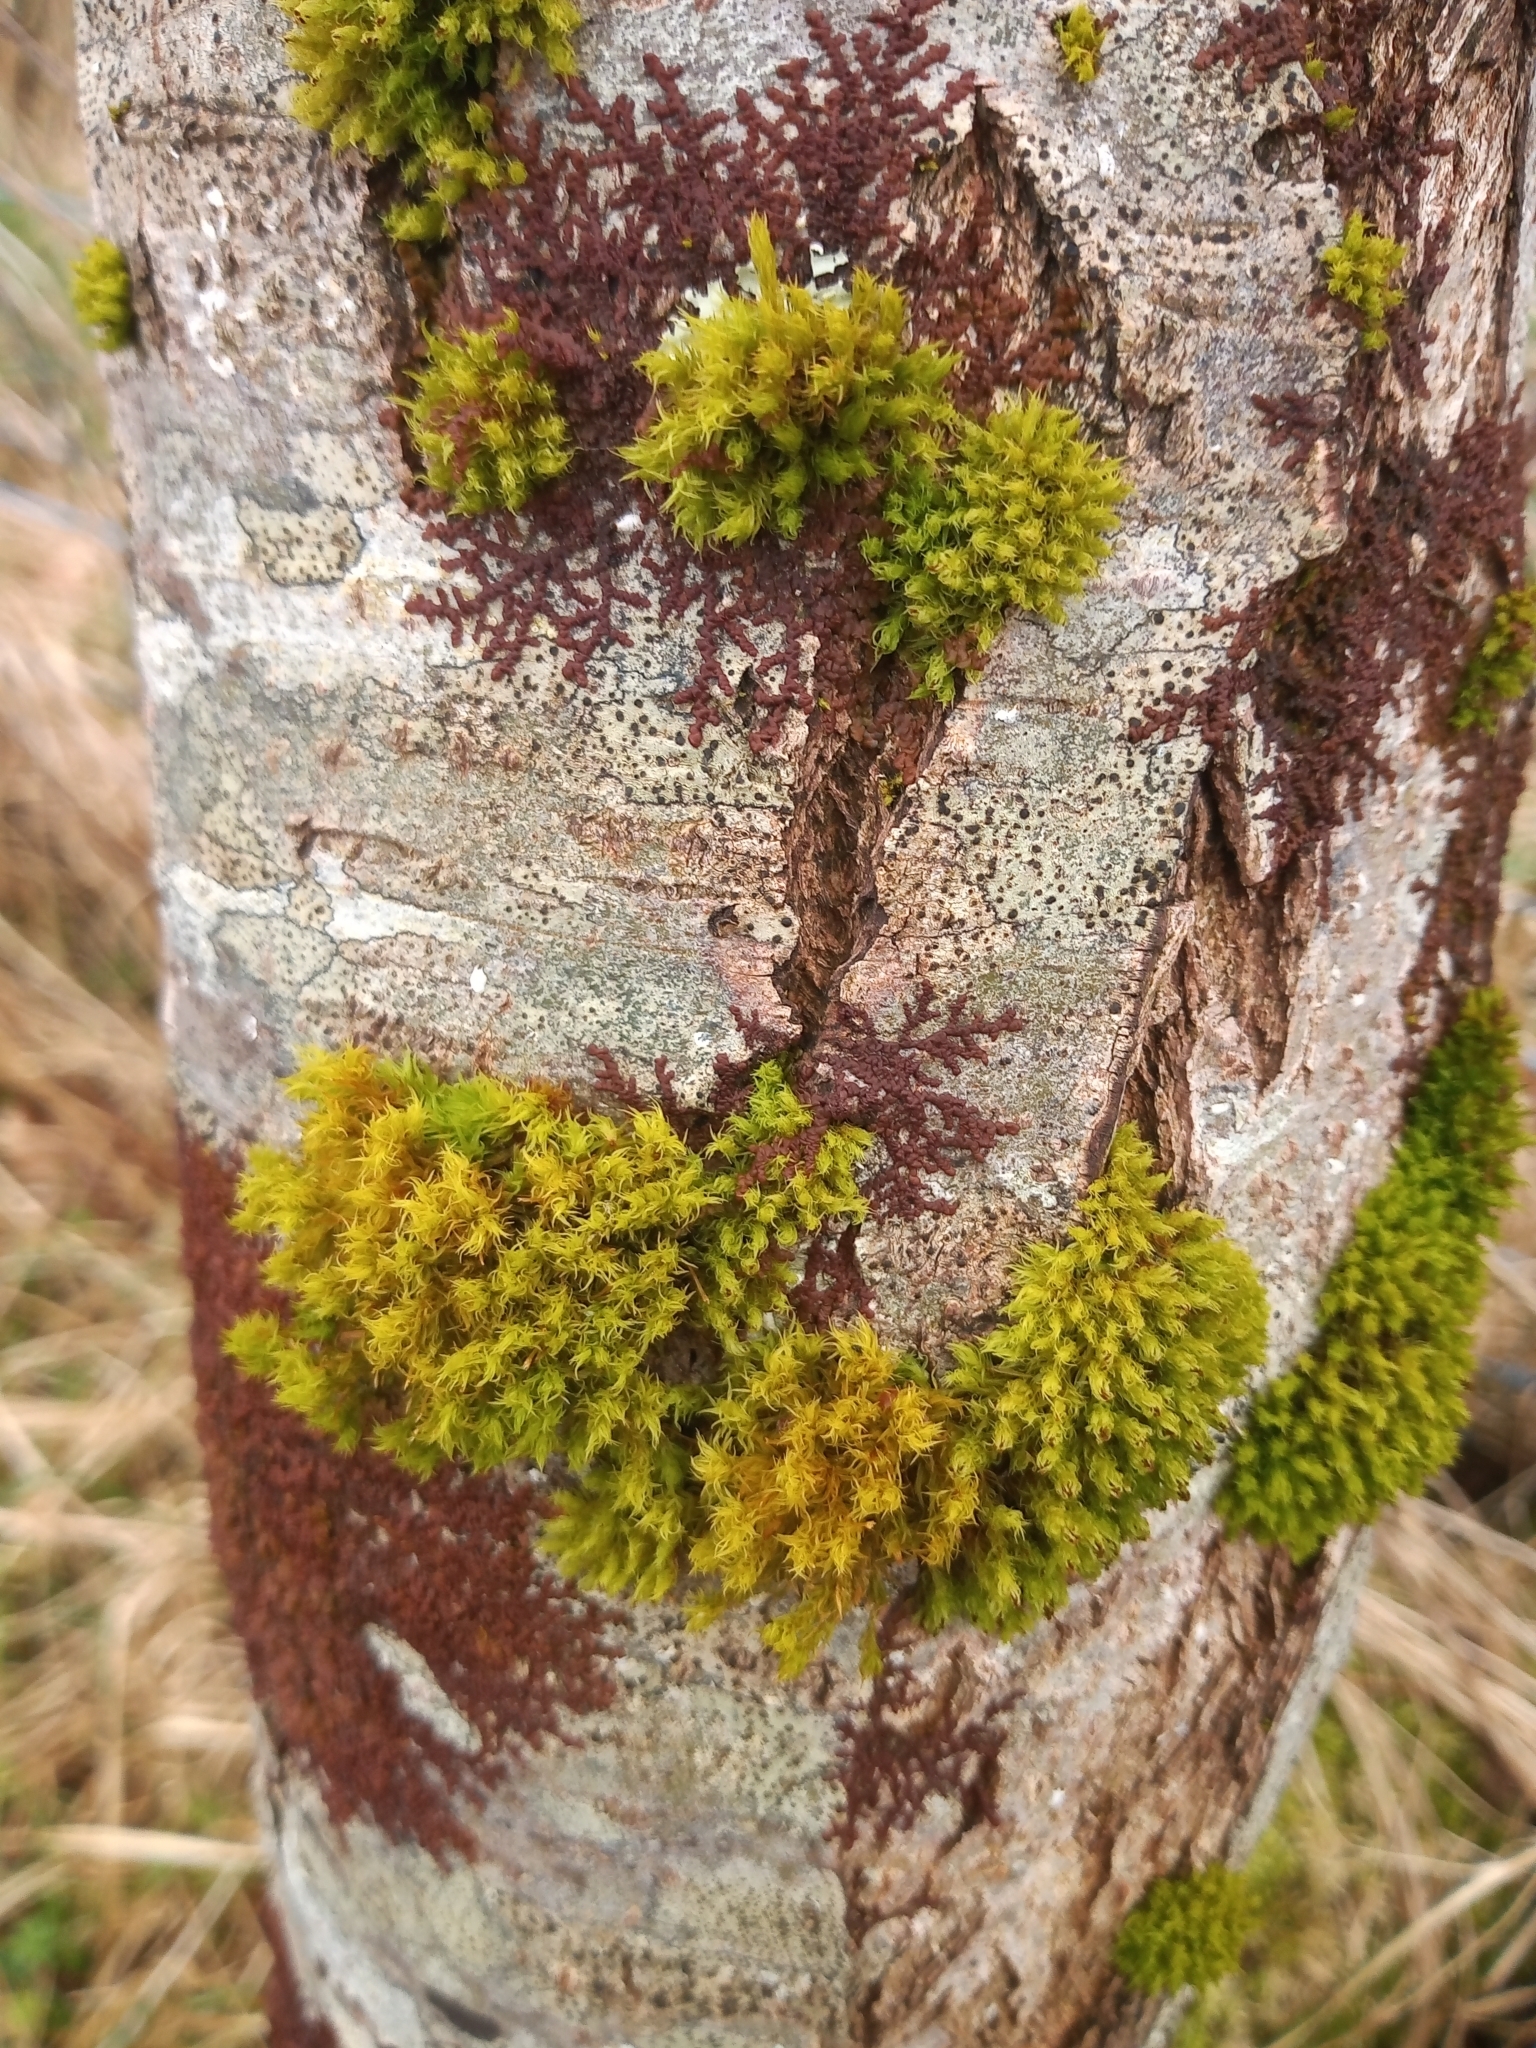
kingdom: Plantae
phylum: Bryophyta
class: Bryopsida
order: Orthotrichales
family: Orthotrichaceae
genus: Plenogemma
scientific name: Plenogemma phyllantha
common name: Frizzled pincushion
